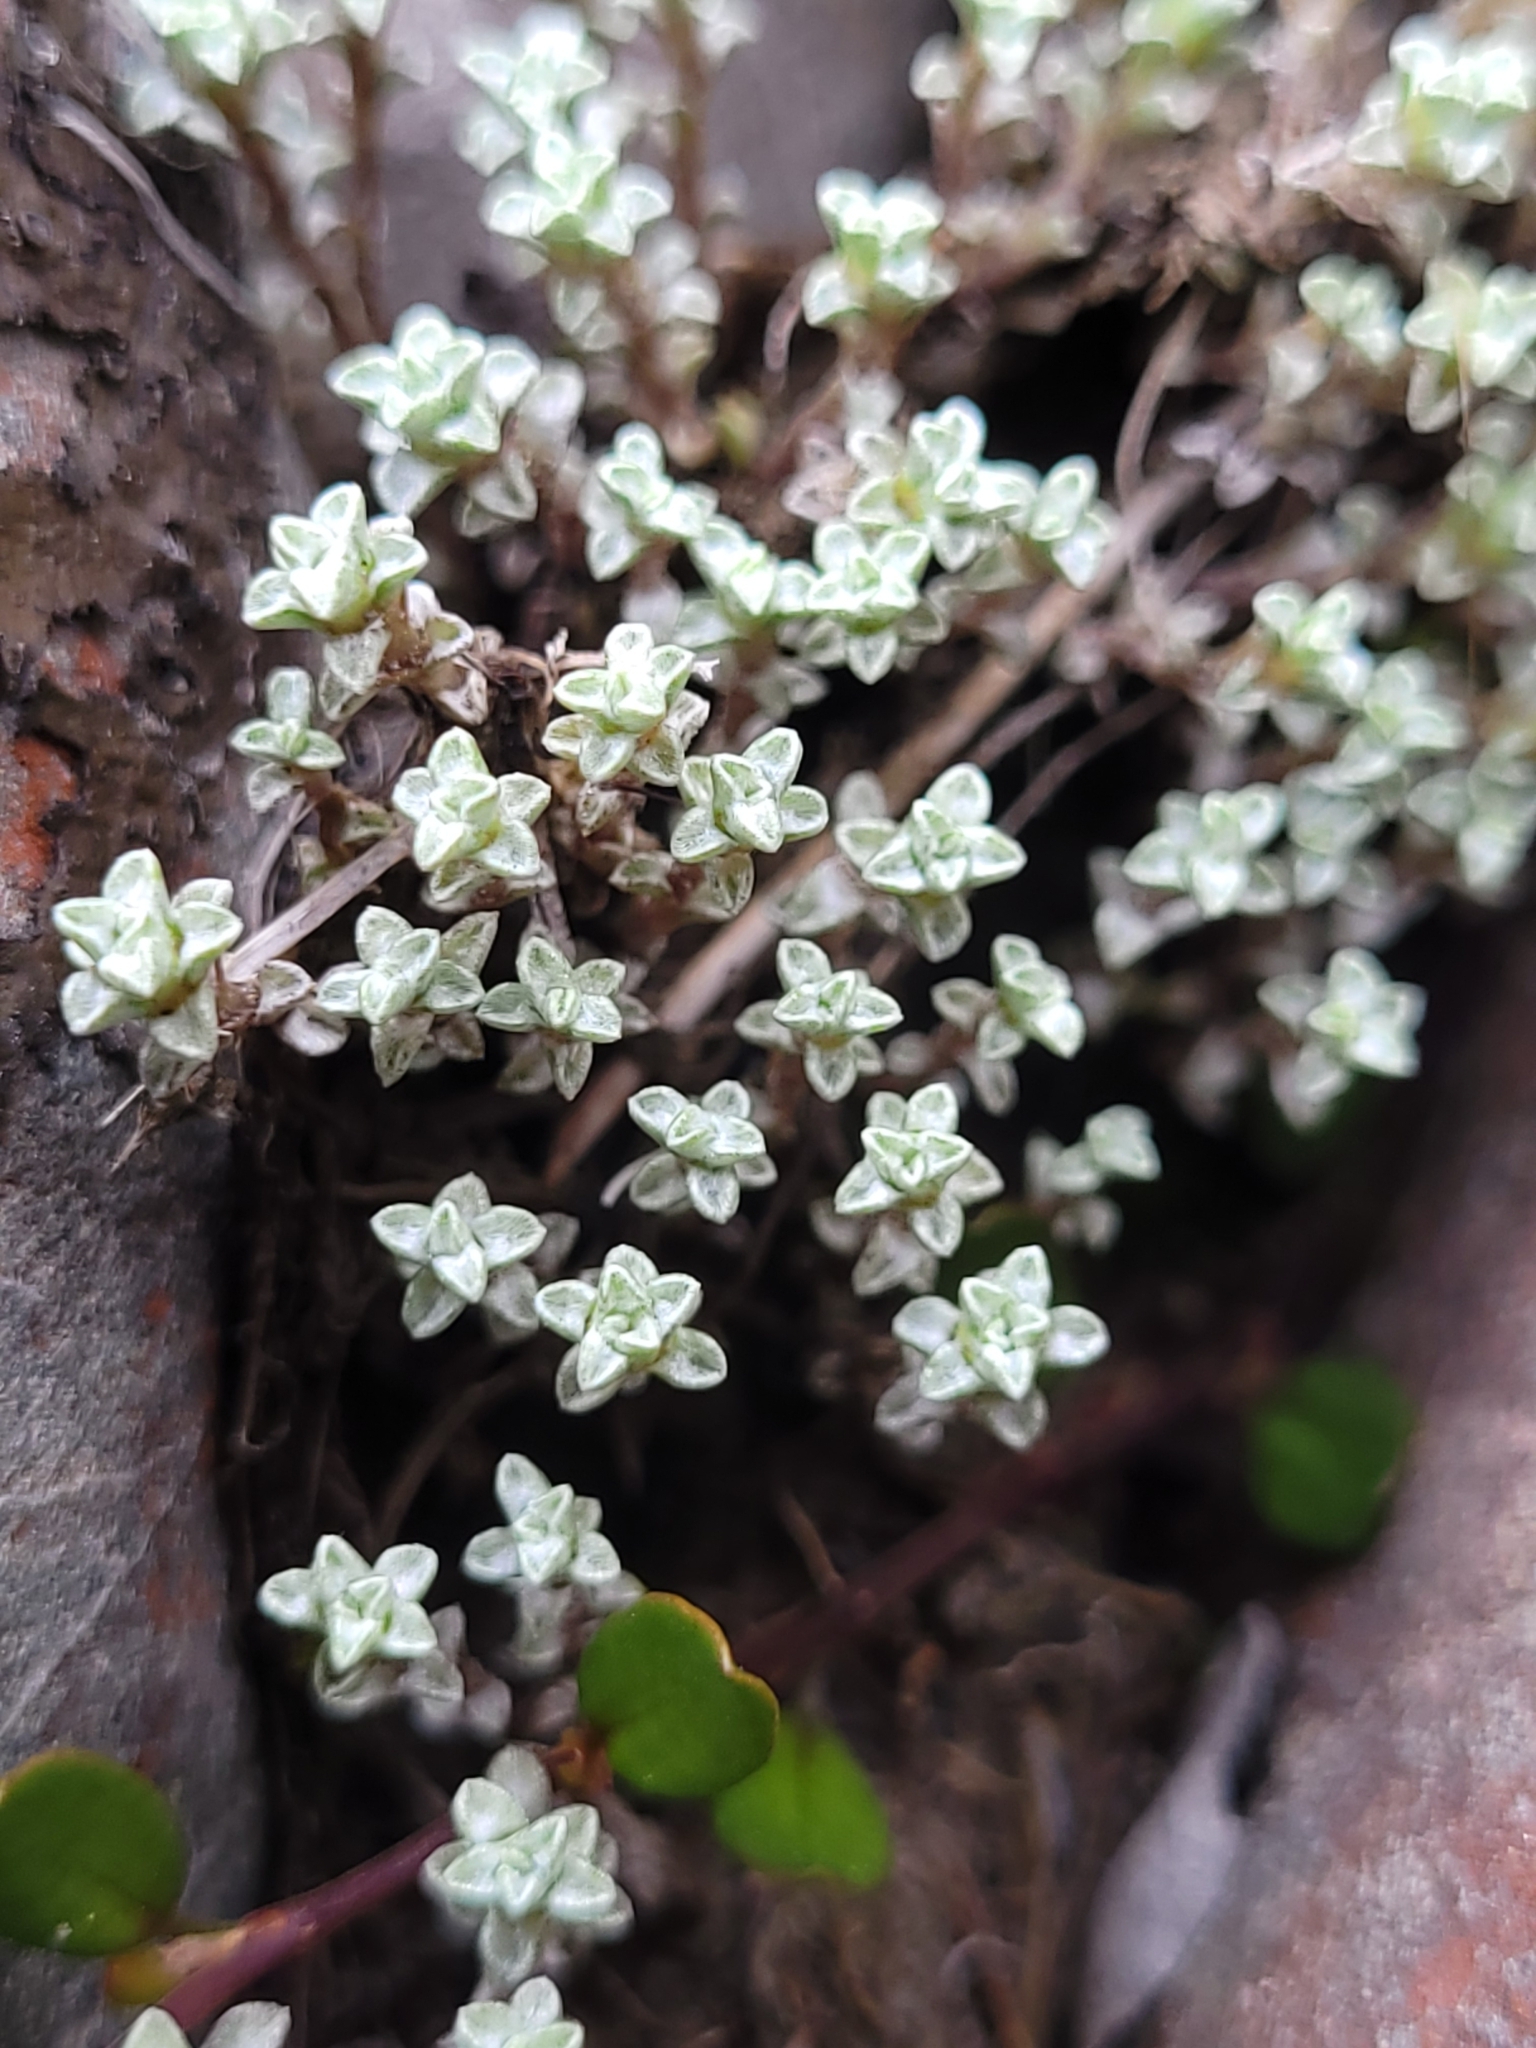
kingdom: Plantae
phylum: Tracheophyta
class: Magnoliopsida
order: Asterales
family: Asteraceae
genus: Raoulia
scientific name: Raoulia hookeri
